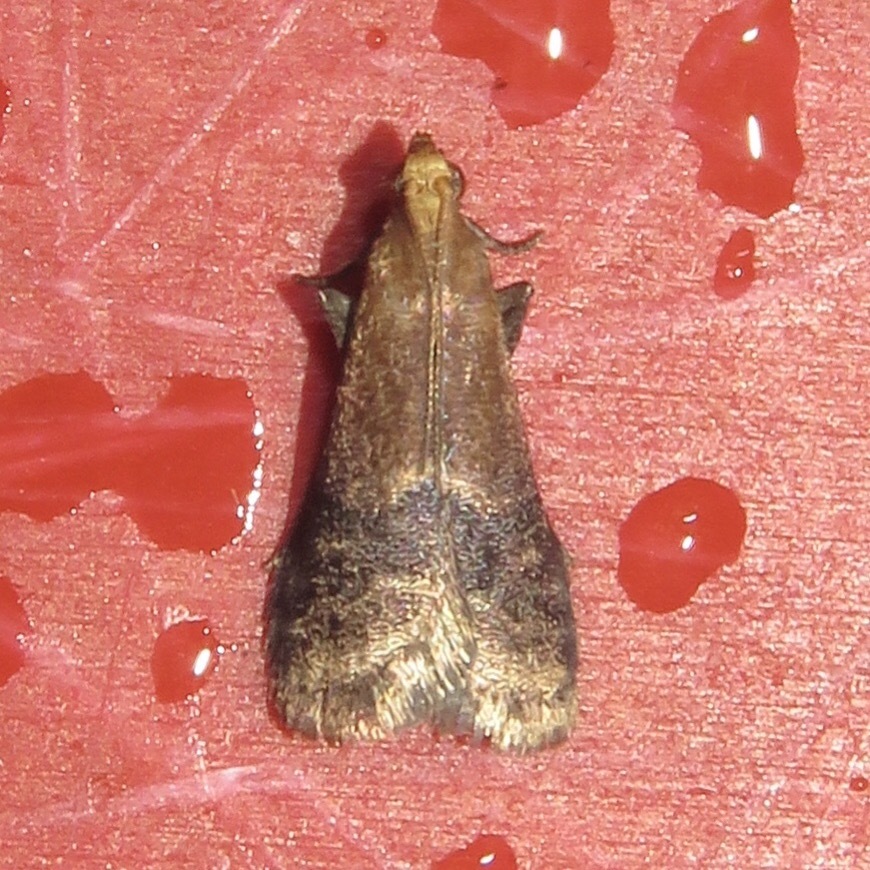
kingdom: Animalia
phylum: Arthropoda
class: Insecta
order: Lepidoptera
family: Pyralidae
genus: Eulogia
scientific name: Eulogia ochrifrontella
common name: Broad-banded eulogia moth
